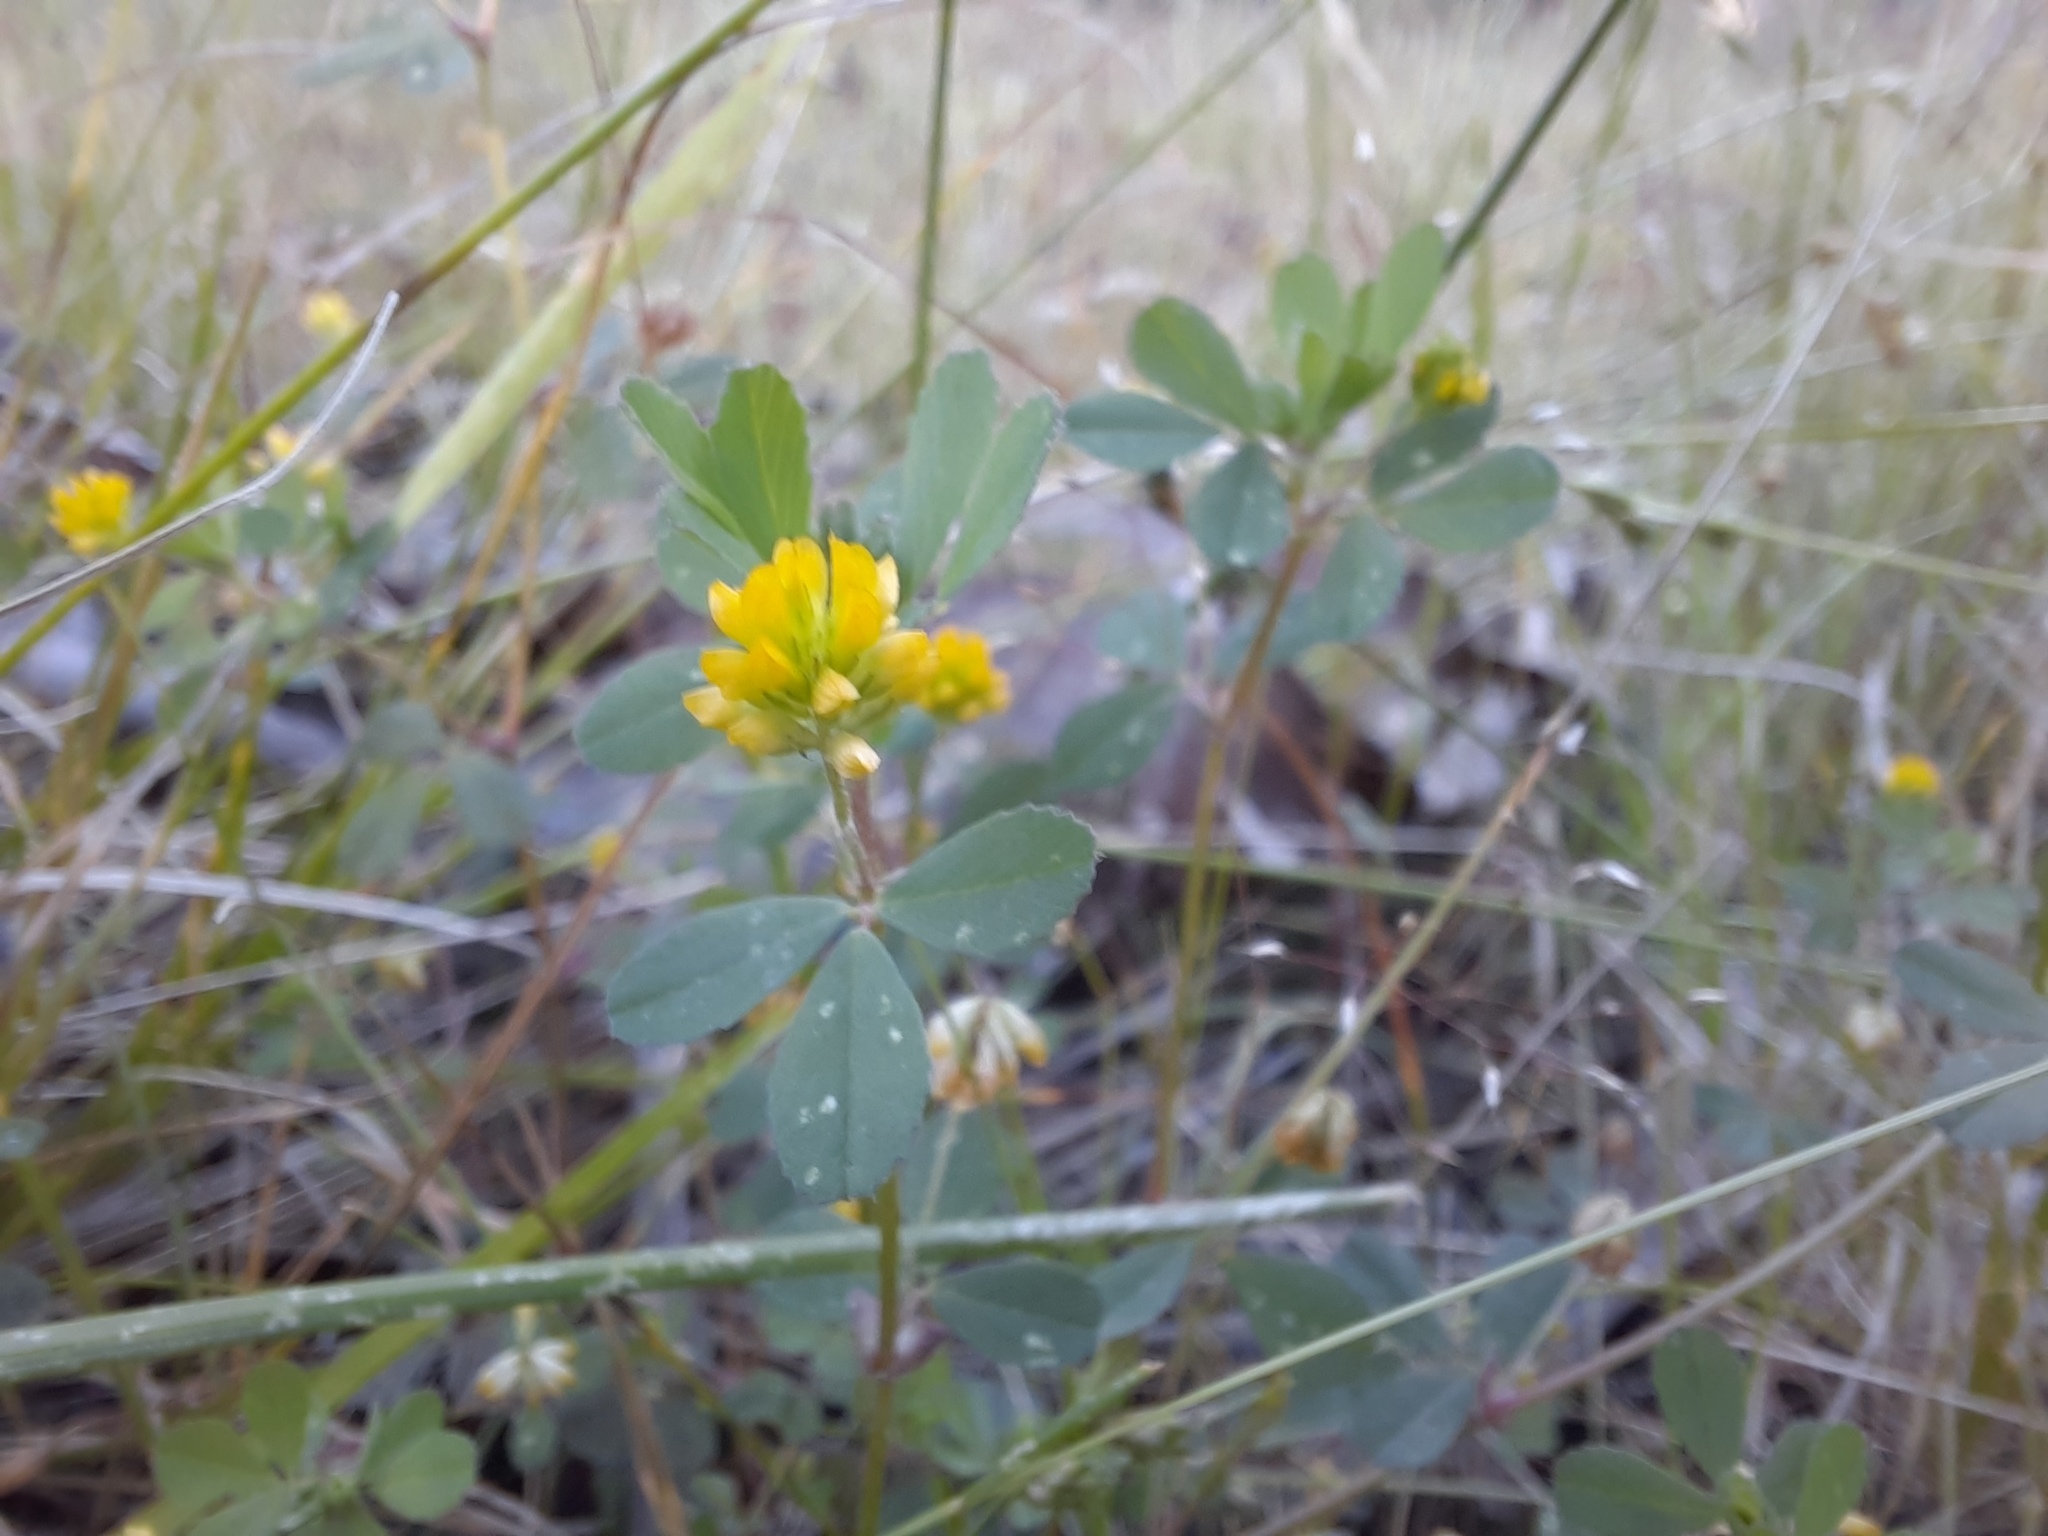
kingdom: Plantae
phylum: Tracheophyta
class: Magnoliopsida
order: Fabales
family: Fabaceae
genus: Trifolium
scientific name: Trifolium dubium
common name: Suckling clover
